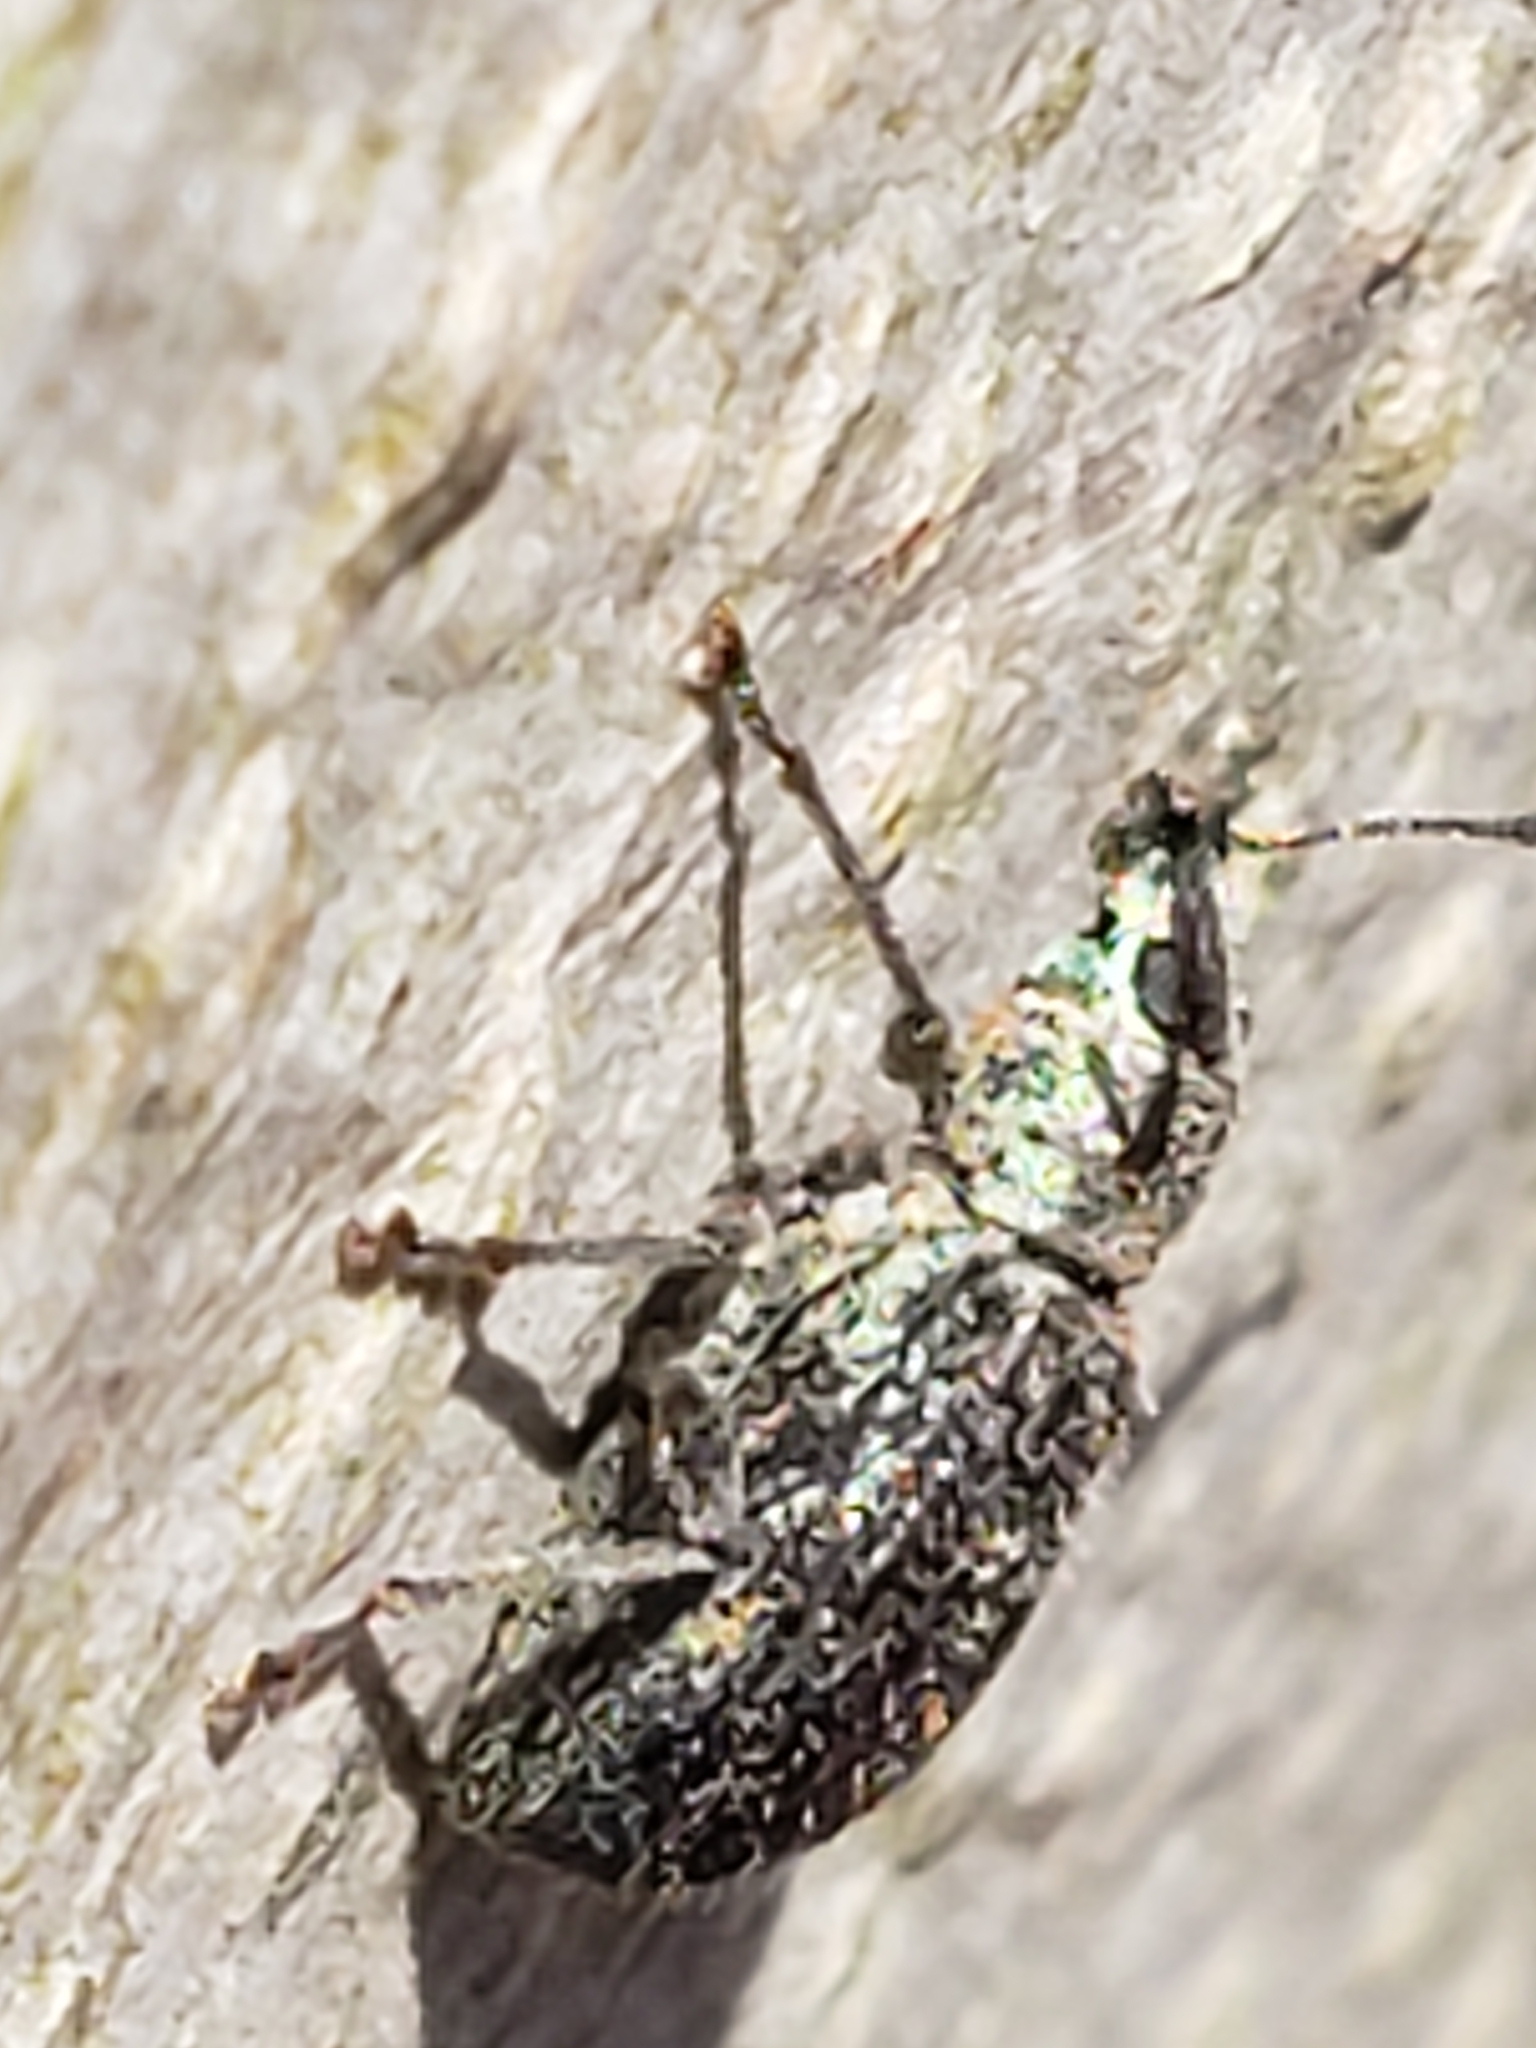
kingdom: Animalia
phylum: Arthropoda
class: Insecta
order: Coleoptera
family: Curculionidae
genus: Cyrtepistomus
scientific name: Cyrtepistomus castaneus
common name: Weevil
